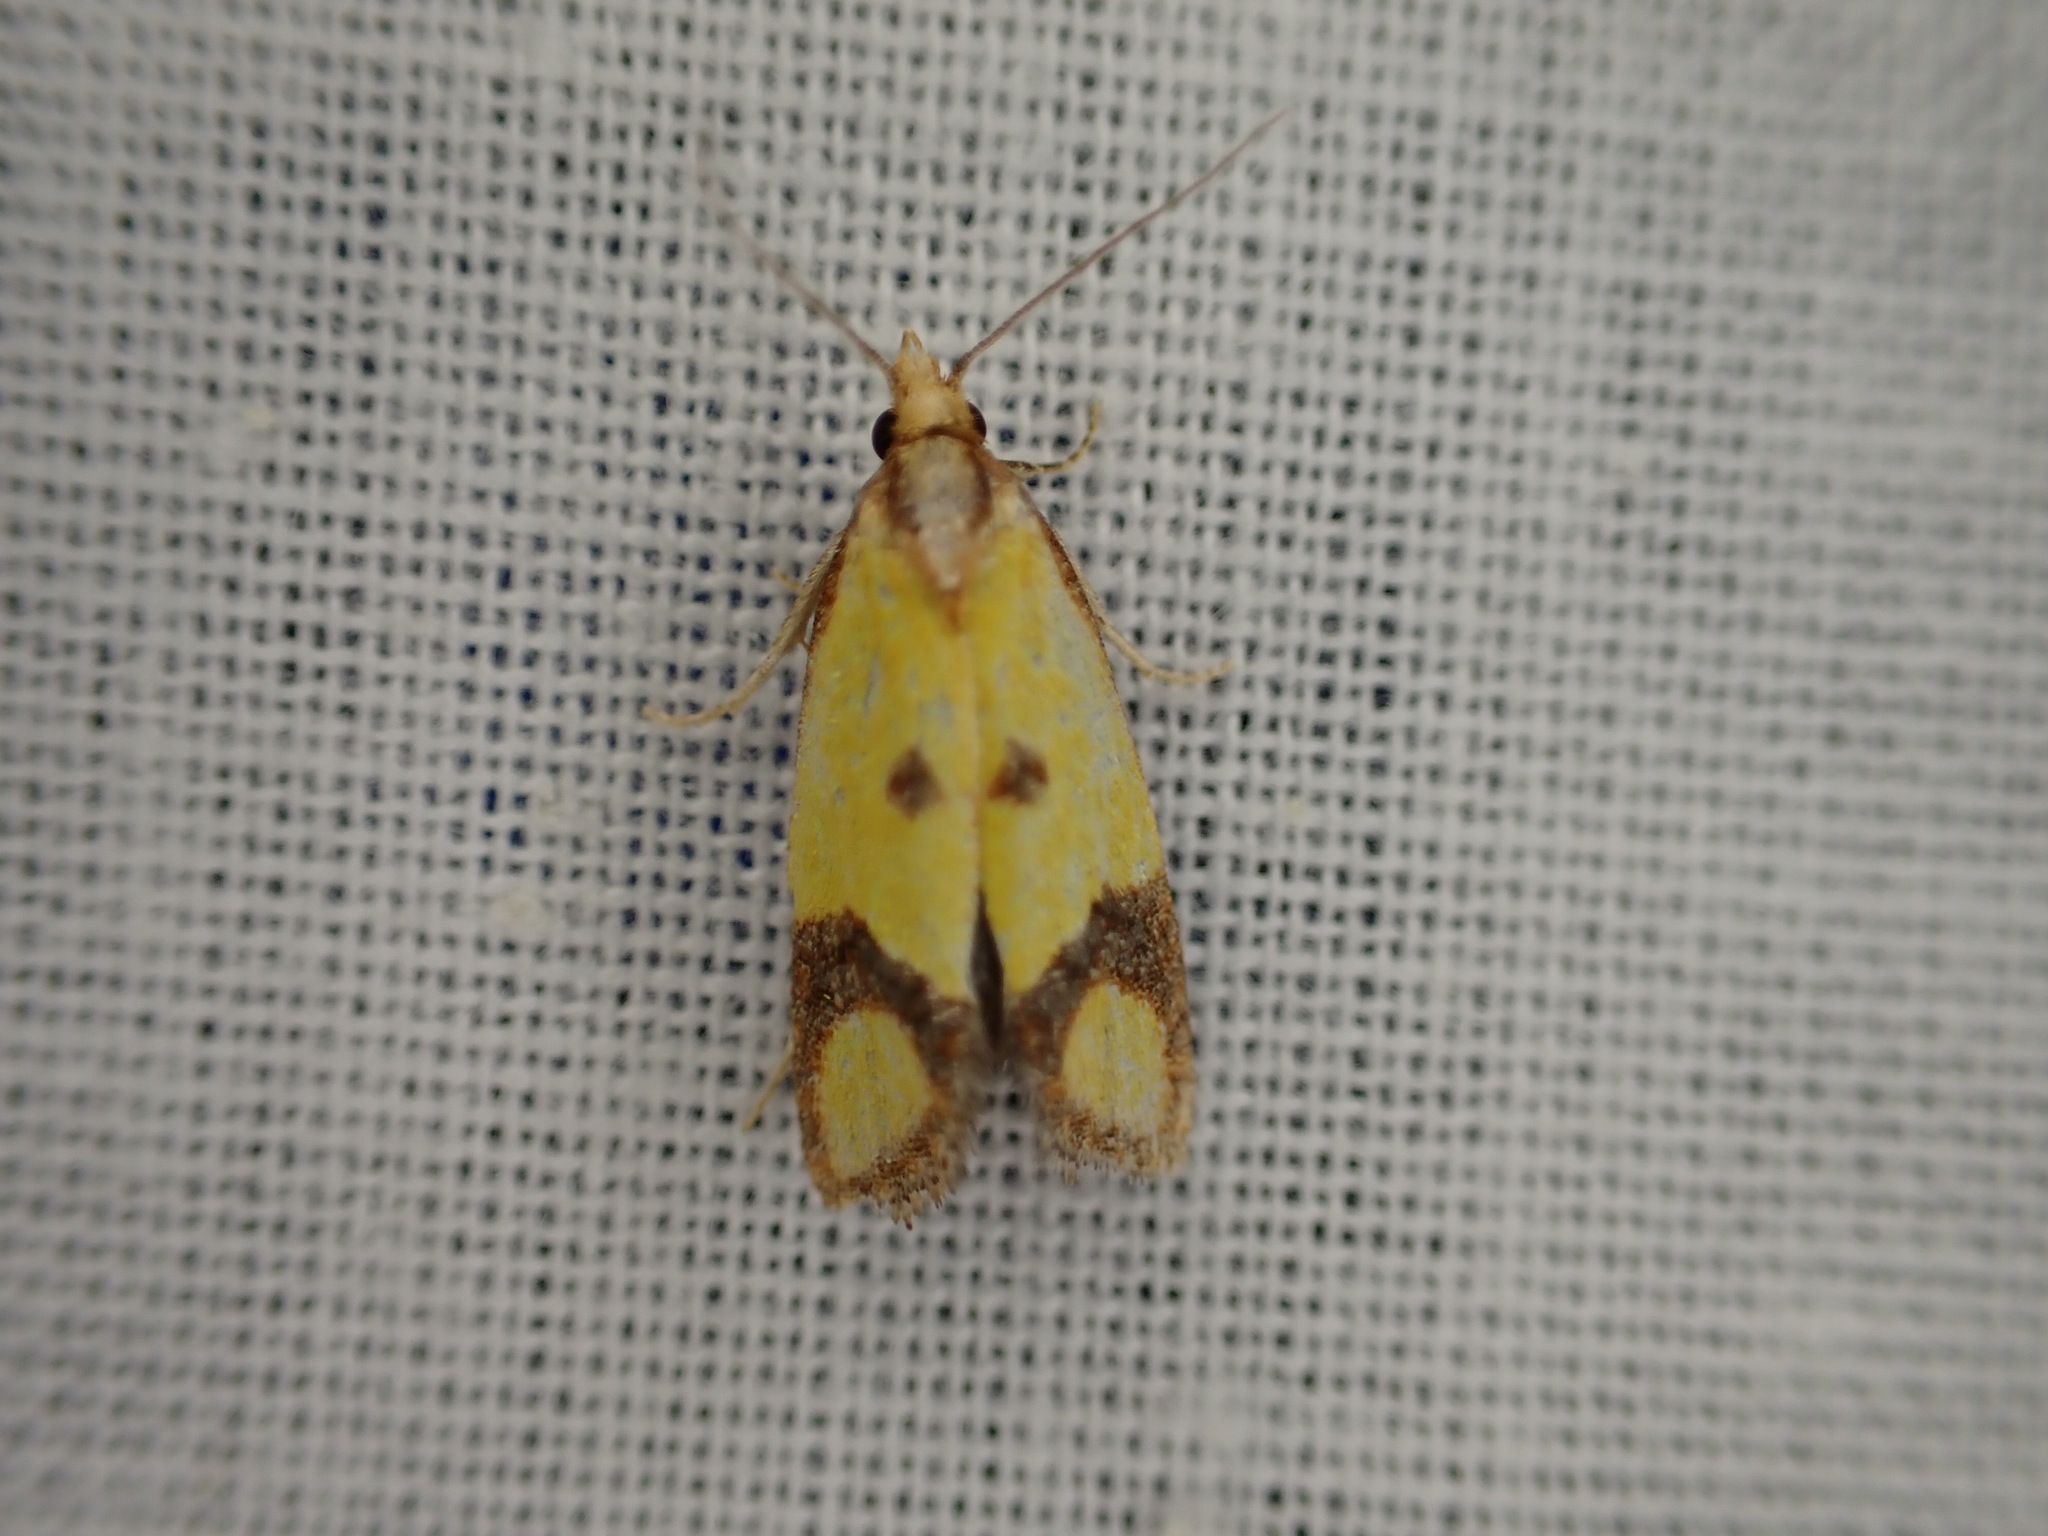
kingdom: Animalia
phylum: Arthropoda
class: Insecta
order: Lepidoptera
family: Tortricidae
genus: Agapeta
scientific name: Agapeta zoegana
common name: Sulfur knapweed root moth
